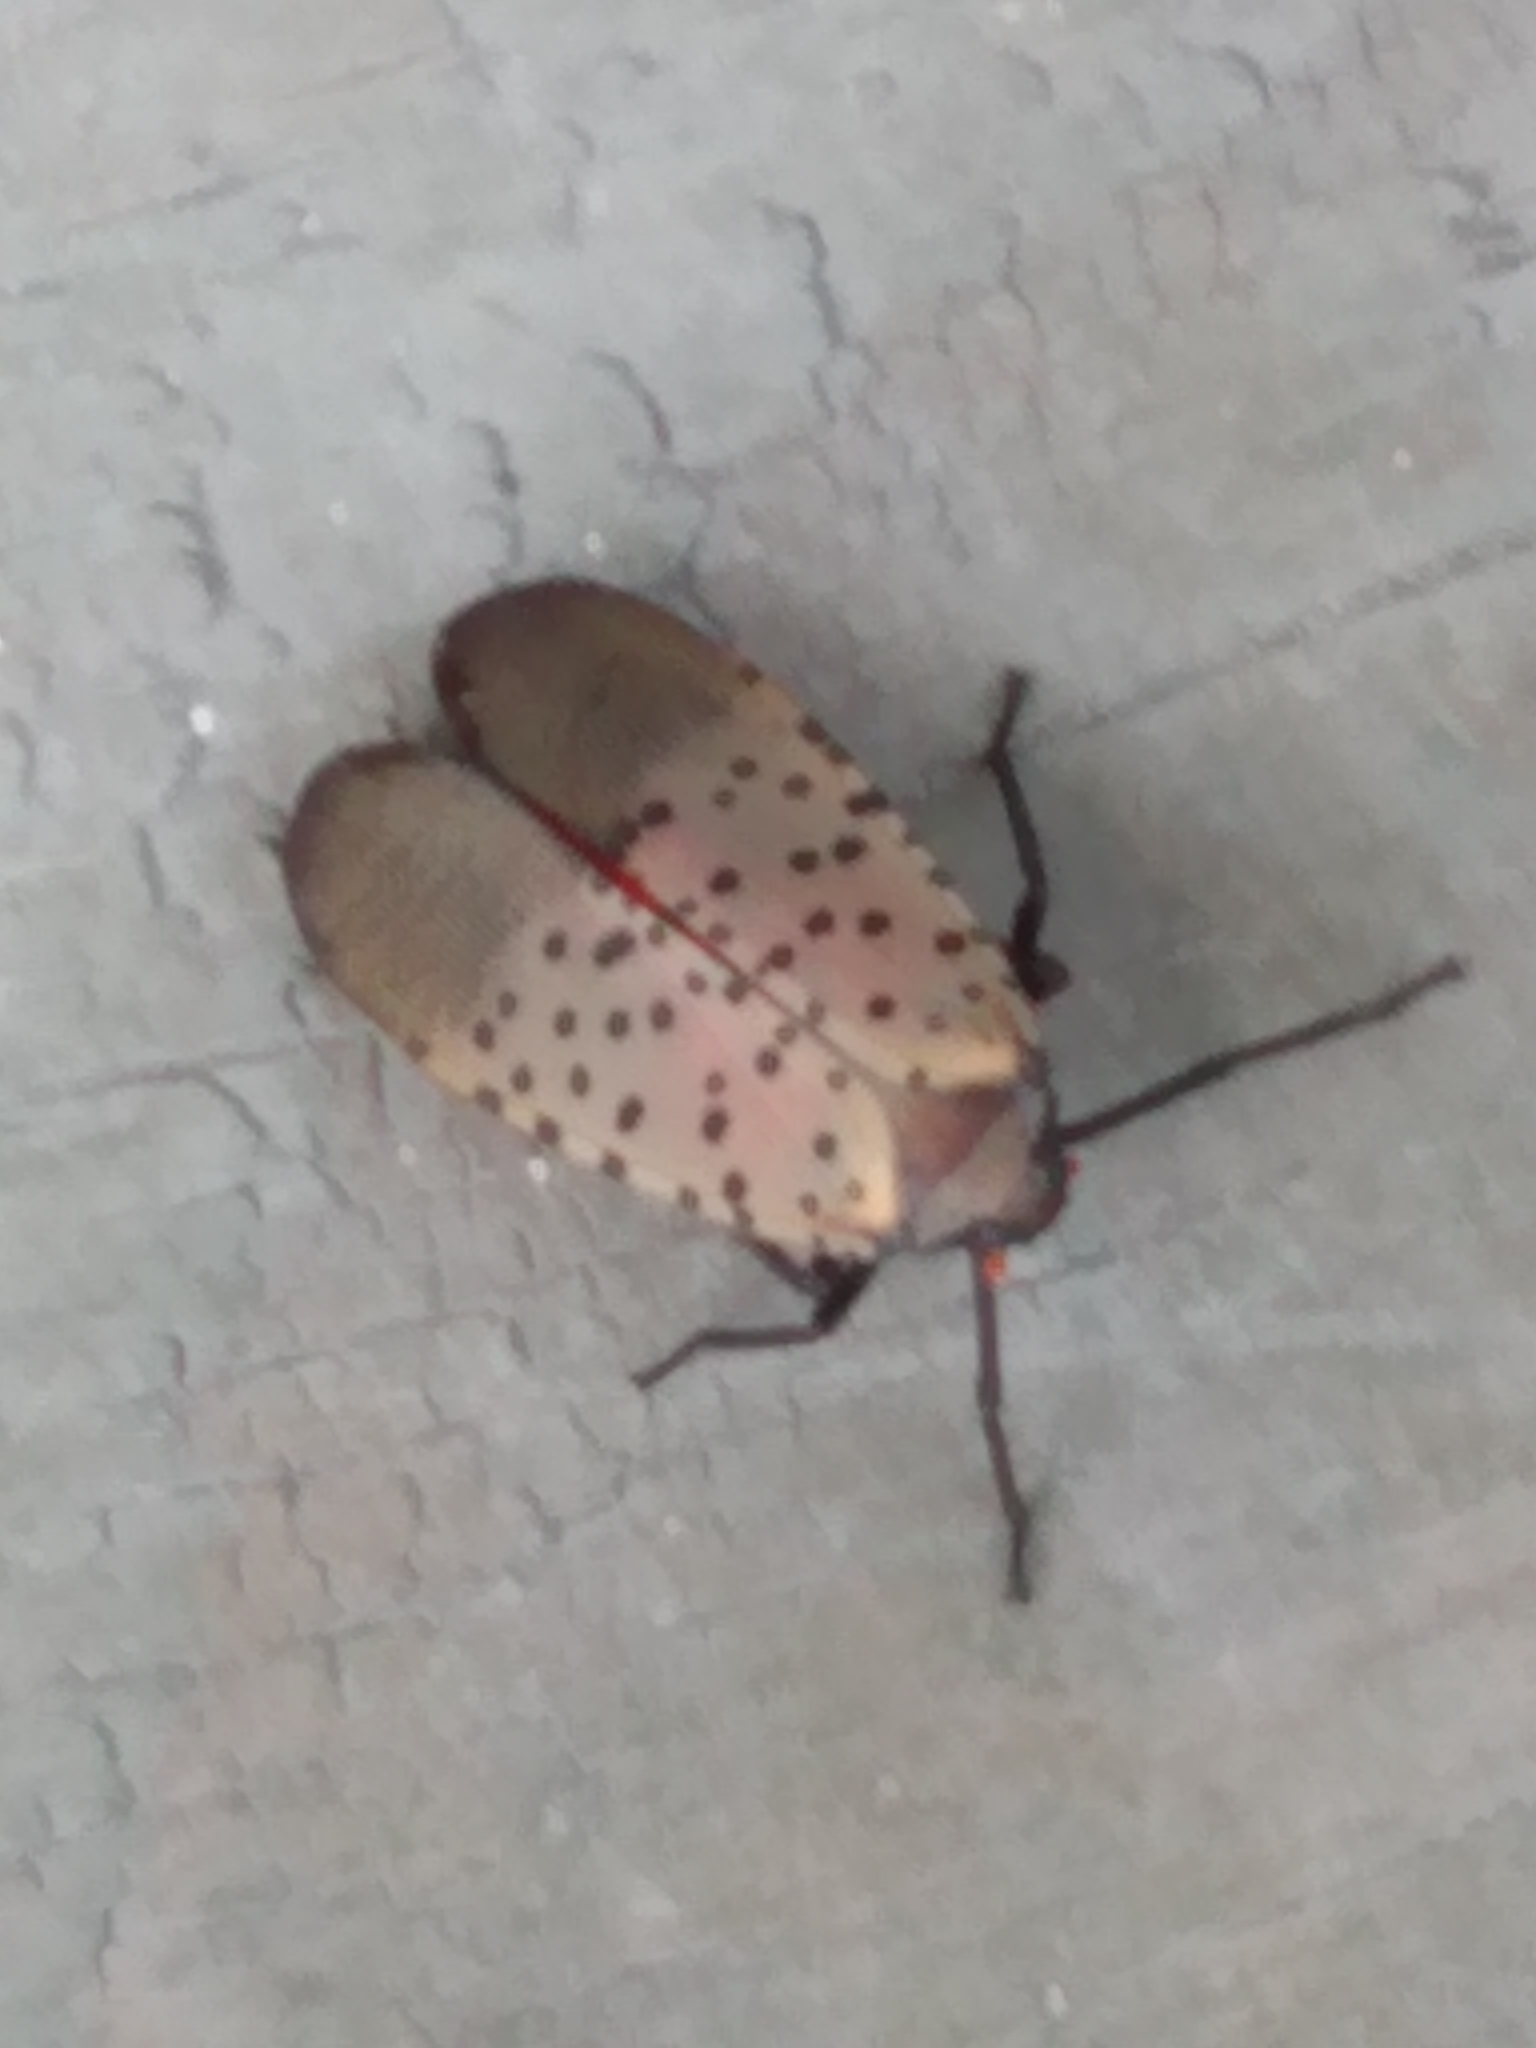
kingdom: Animalia
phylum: Arthropoda
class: Insecta
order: Hemiptera
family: Fulgoridae
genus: Lycorma
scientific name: Lycorma delicatula
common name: Spotted lanternfly
